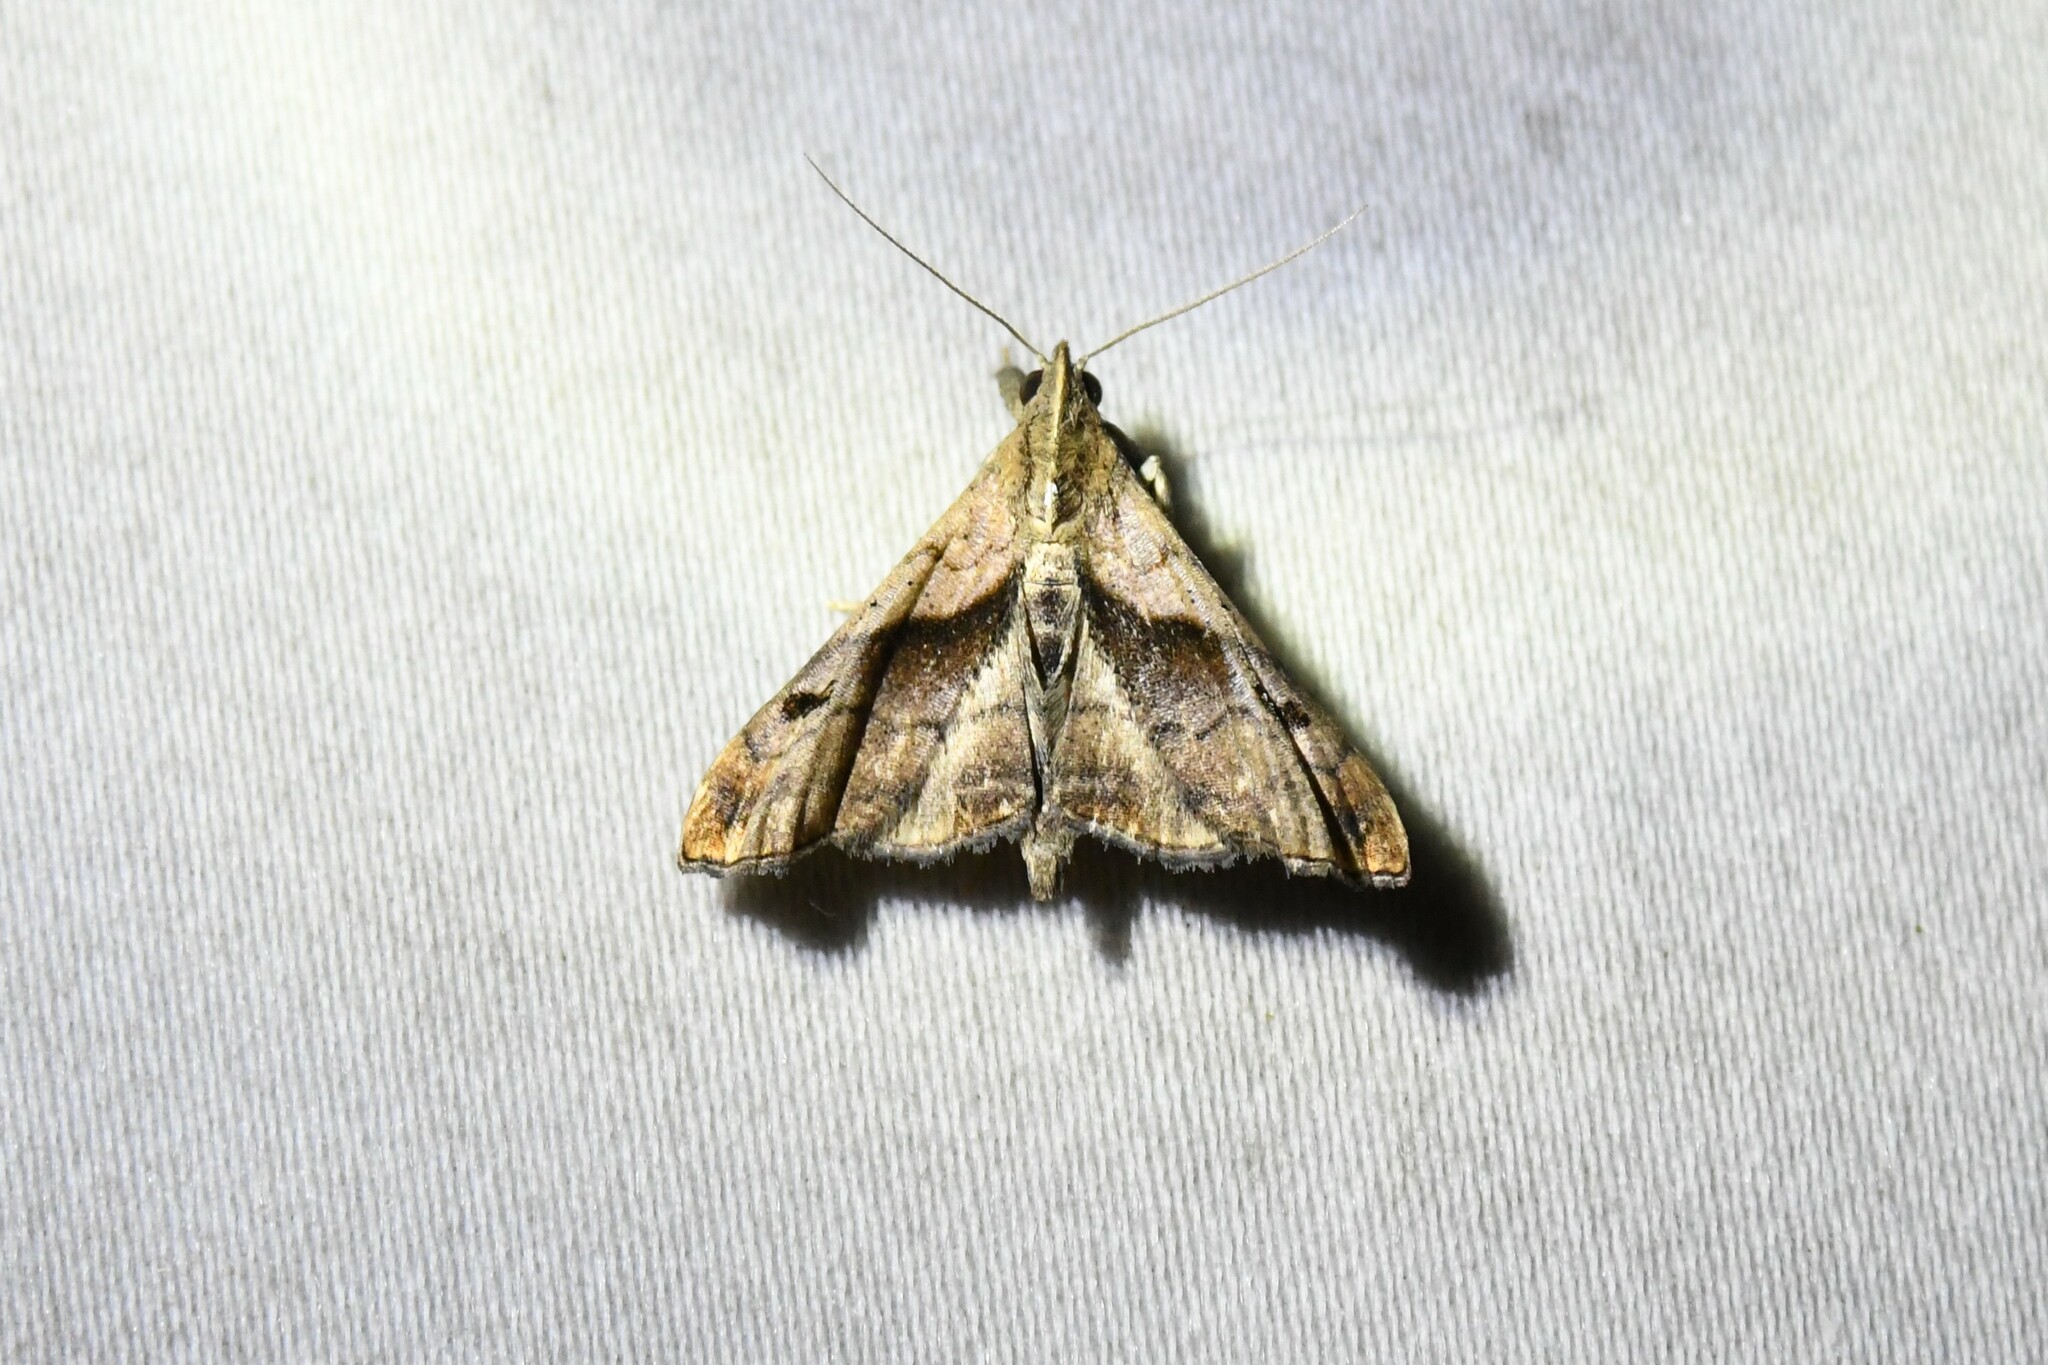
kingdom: Animalia
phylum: Arthropoda
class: Insecta
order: Lepidoptera
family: Erebidae
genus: Palthis
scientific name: Palthis angulalis
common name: Dark-spotted palthis moth
